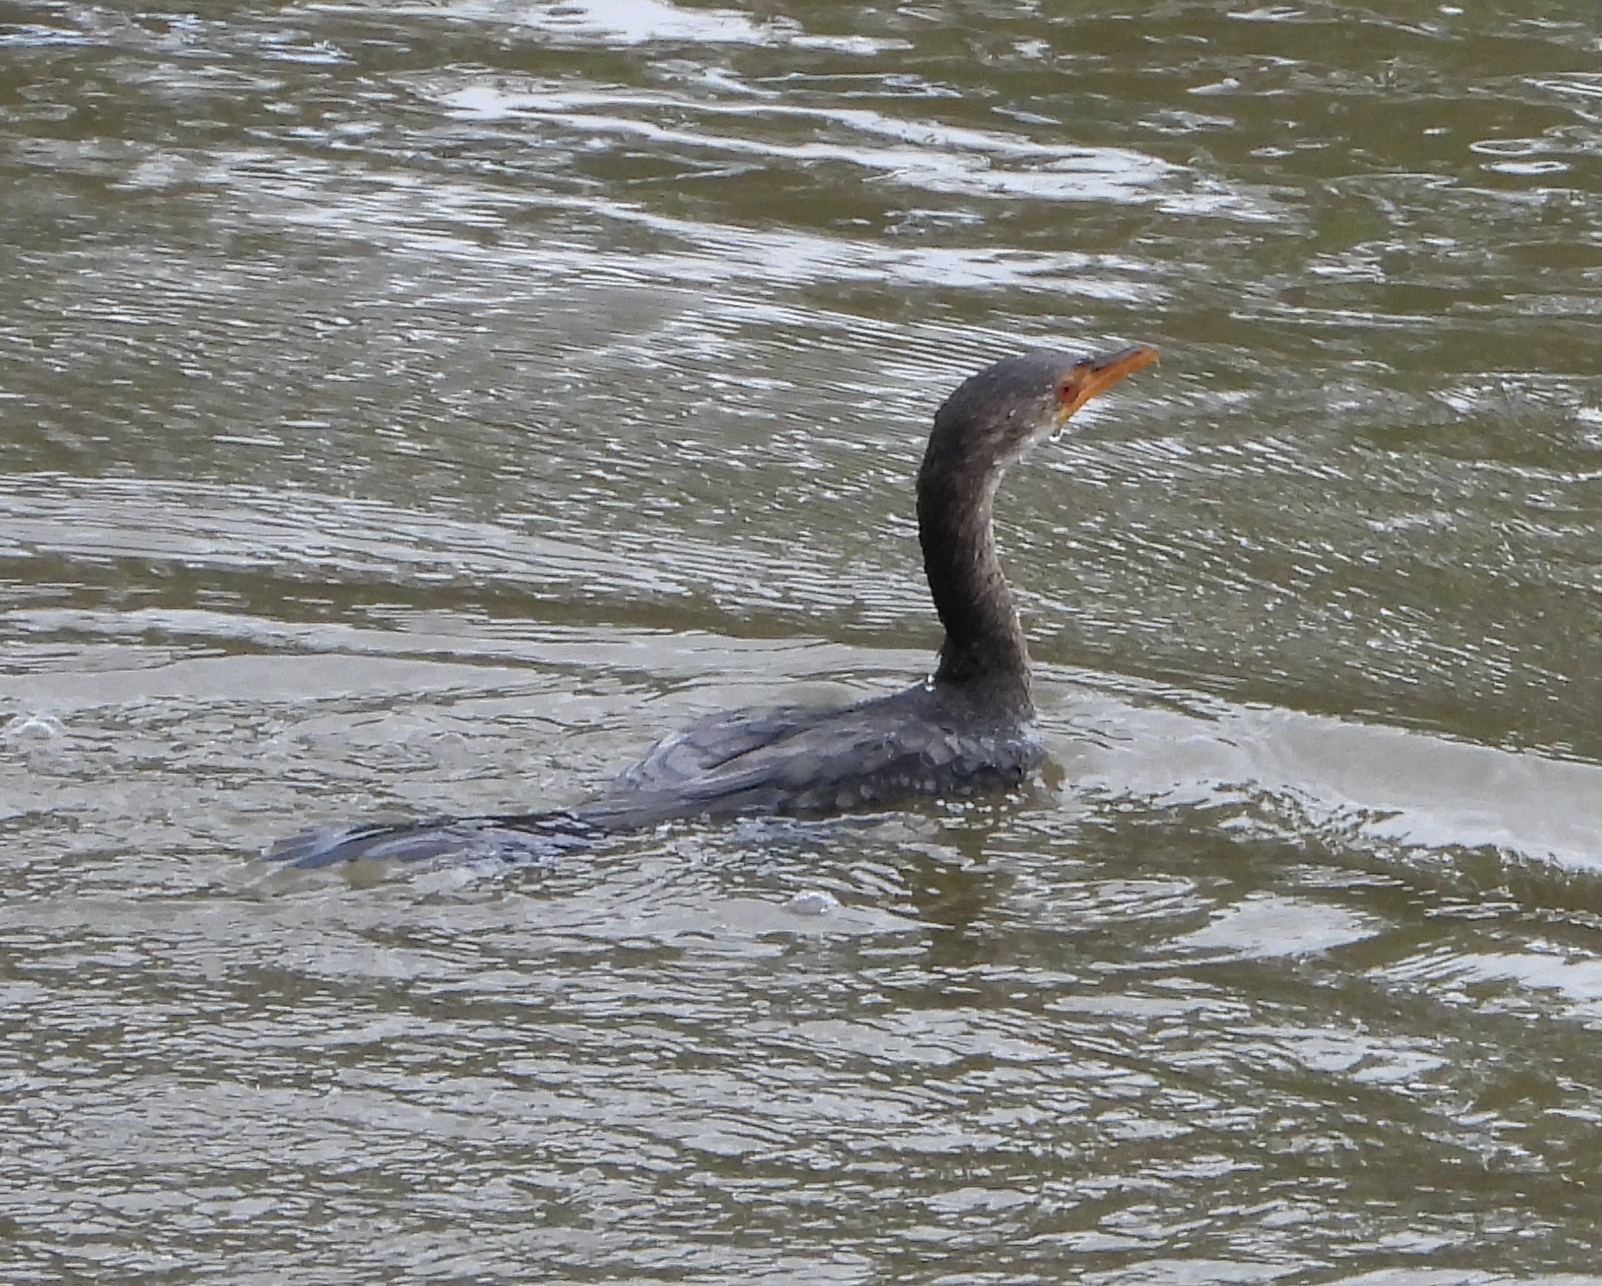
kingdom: Animalia
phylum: Chordata
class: Aves
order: Suliformes
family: Phalacrocoracidae
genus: Microcarbo
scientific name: Microcarbo africanus
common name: Long-tailed cormorant
